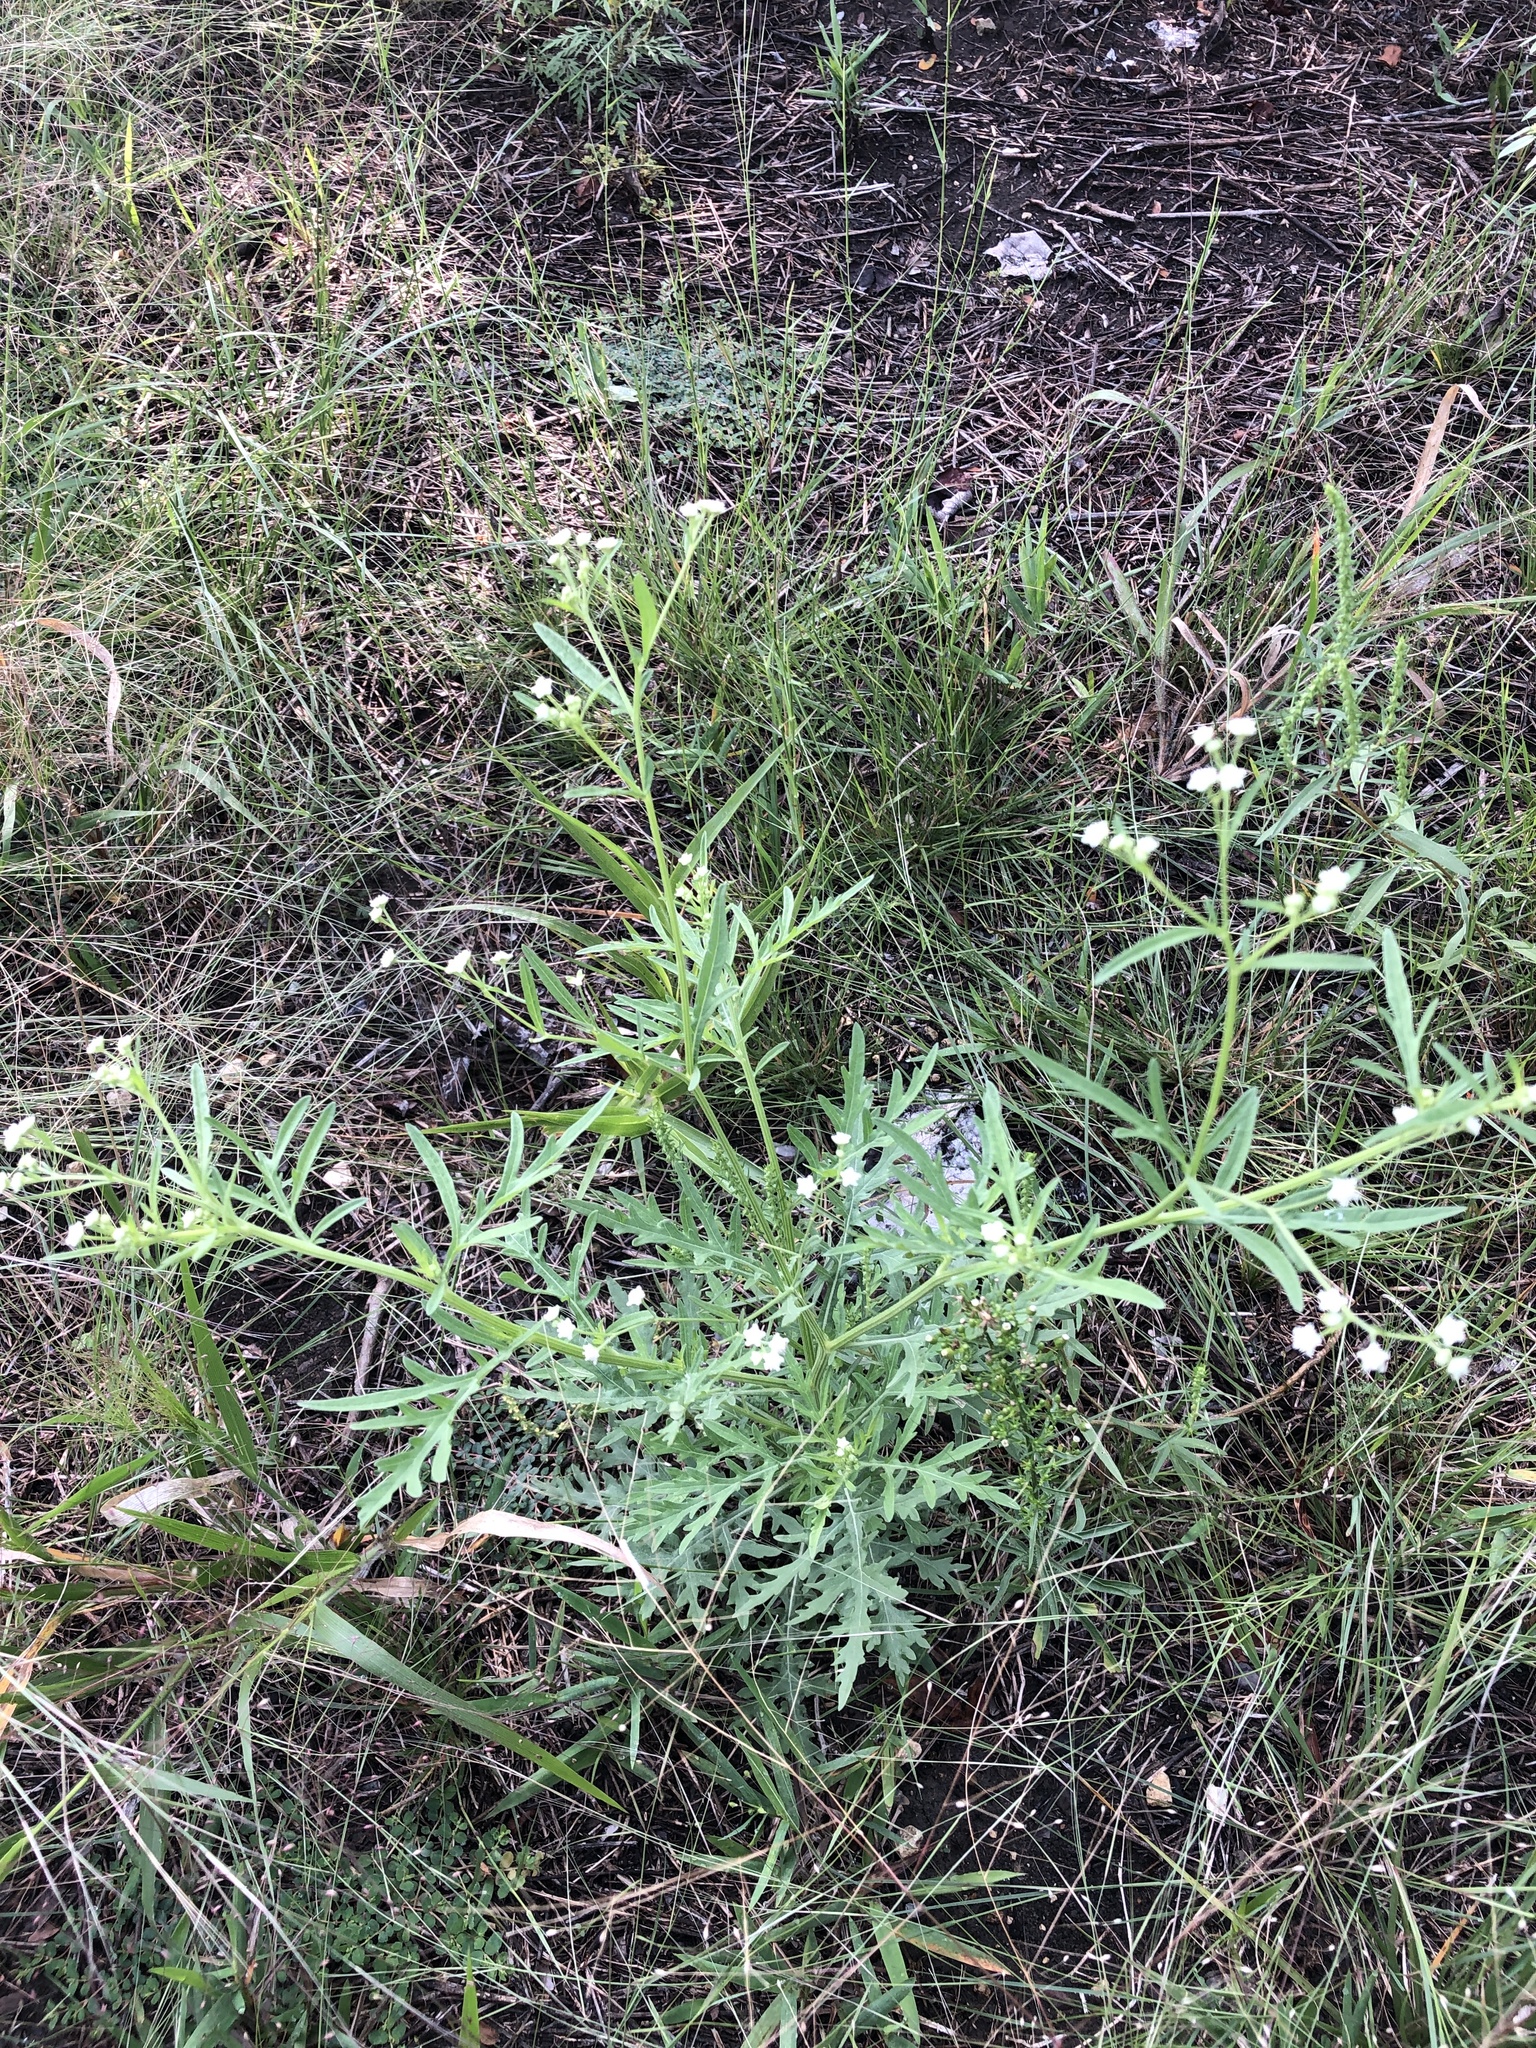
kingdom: Plantae
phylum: Tracheophyta
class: Magnoliopsida
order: Asterales
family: Asteraceae
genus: Parthenium
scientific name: Parthenium hysterophorus
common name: Santa maria feverfew
